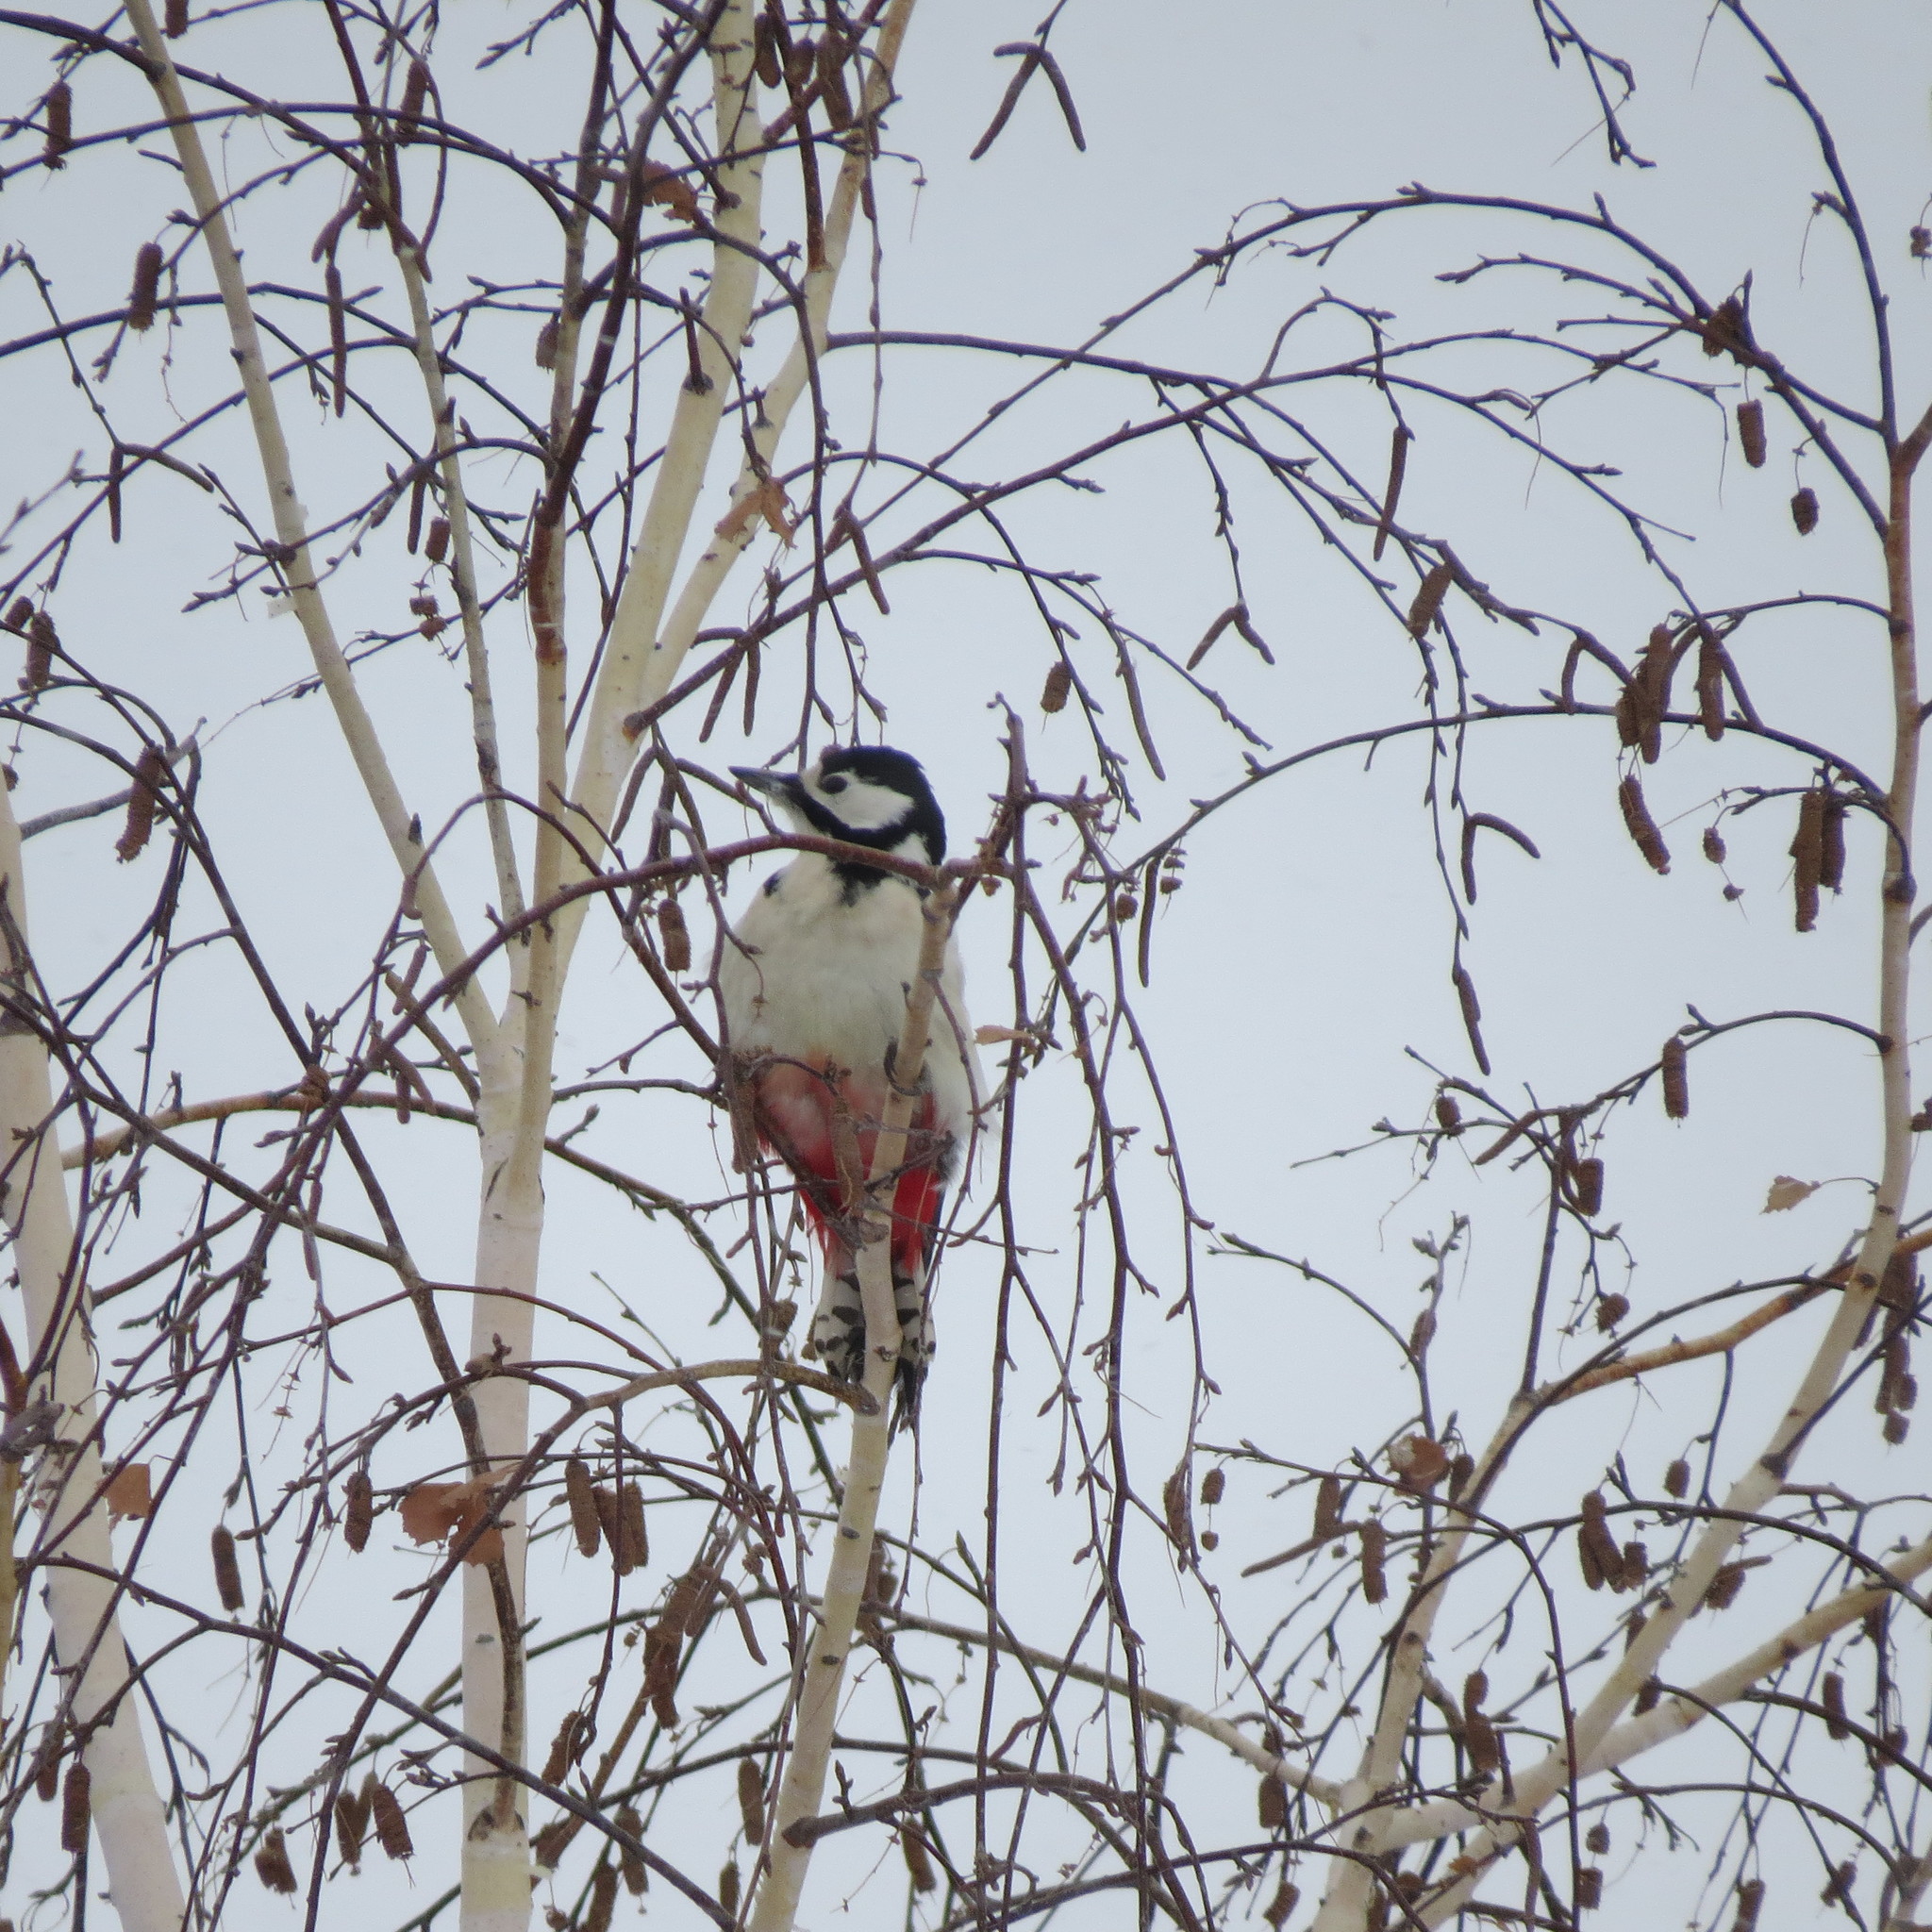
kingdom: Animalia
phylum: Chordata
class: Aves
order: Piciformes
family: Picidae
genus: Dendrocopos
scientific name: Dendrocopos major
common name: Great spotted woodpecker
